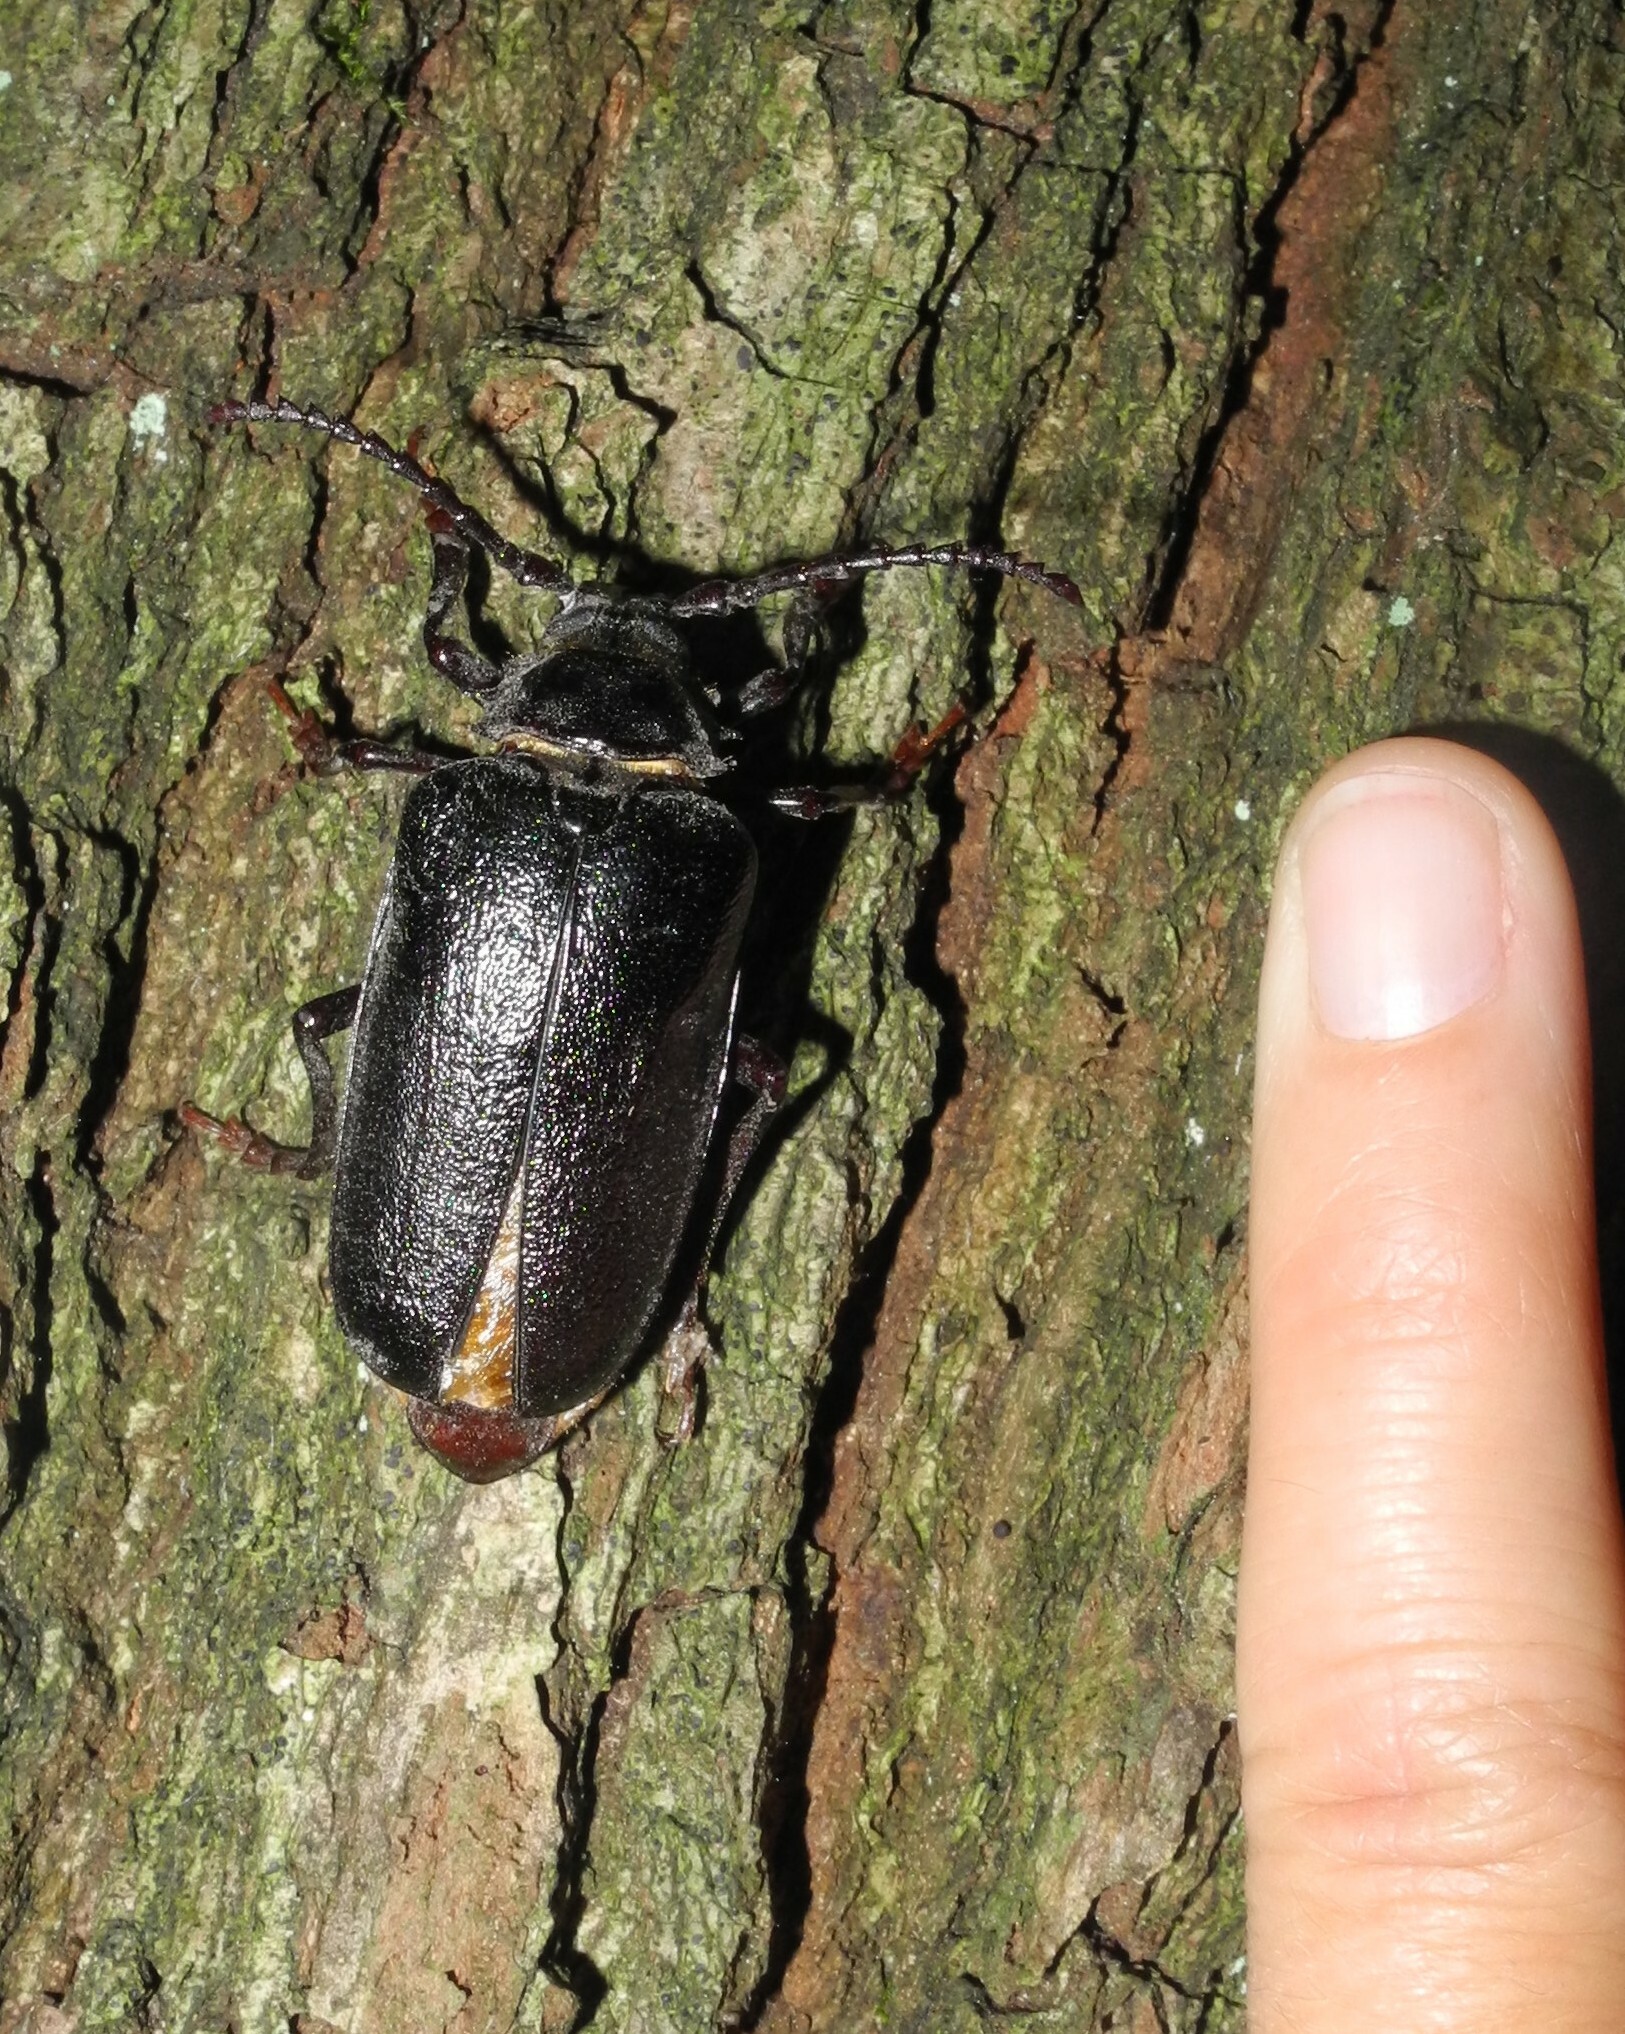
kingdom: Animalia
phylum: Arthropoda
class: Insecta
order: Coleoptera
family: Cerambycidae
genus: Prionus
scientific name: Prionus coriarius
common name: Tanner beetle
